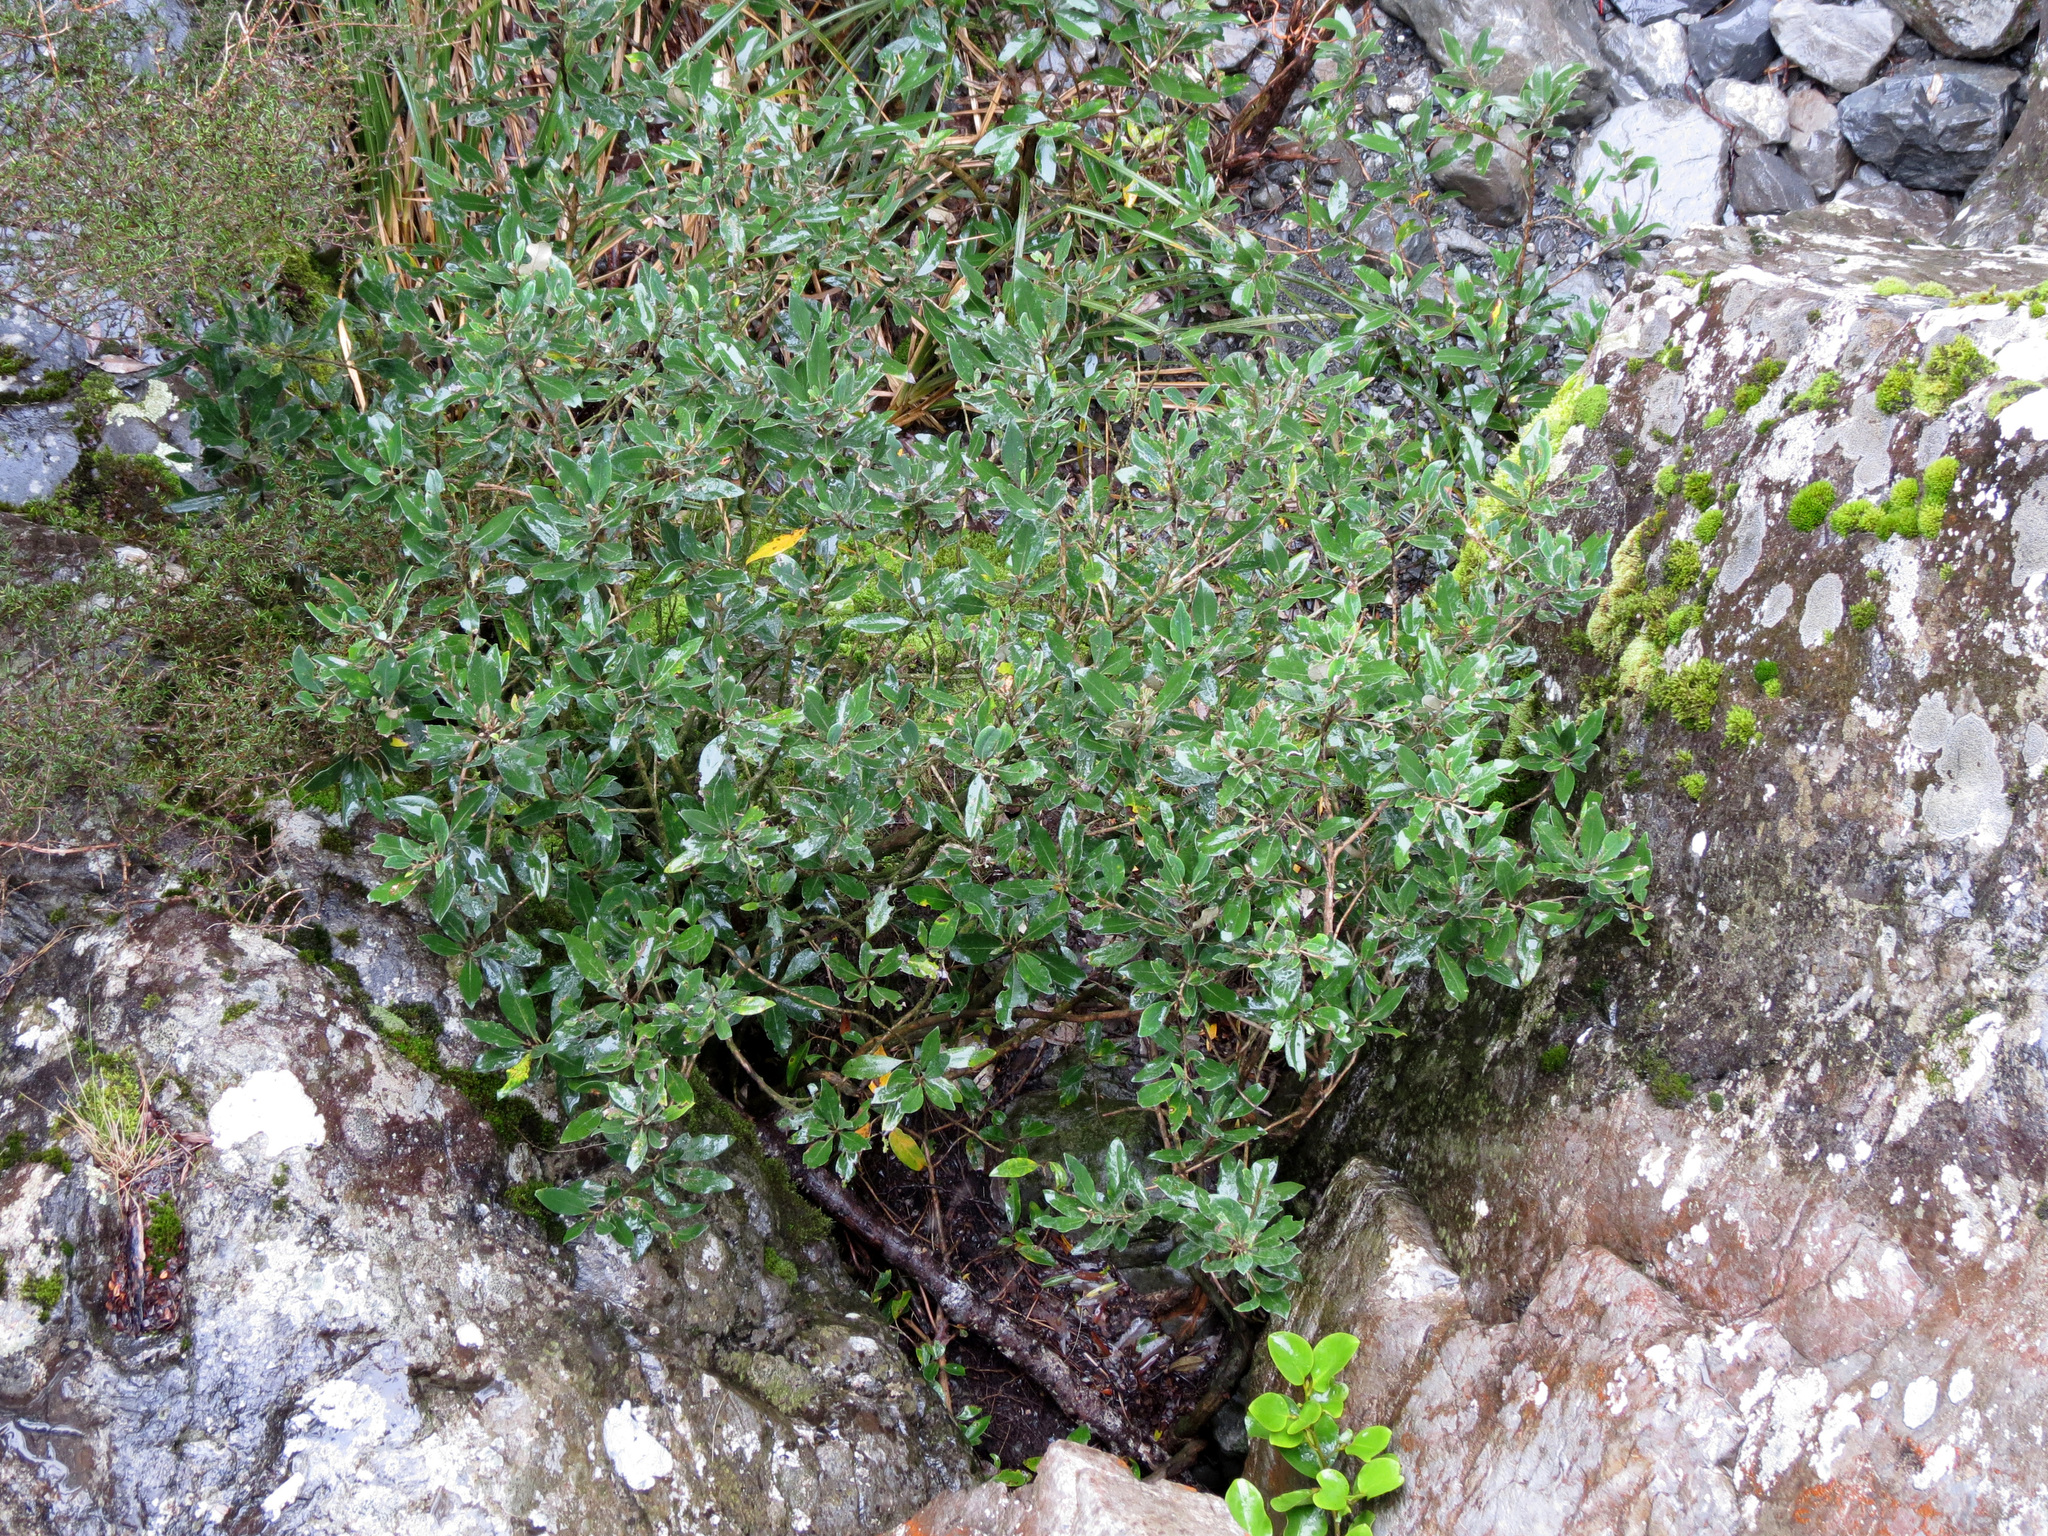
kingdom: Plantae
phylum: Tracheophyta
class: Magnoliopsida
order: Asterales
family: Asteraceae
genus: Olearia
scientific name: Olearia avicenniifolia
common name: Mangrove-leaf daisybush
